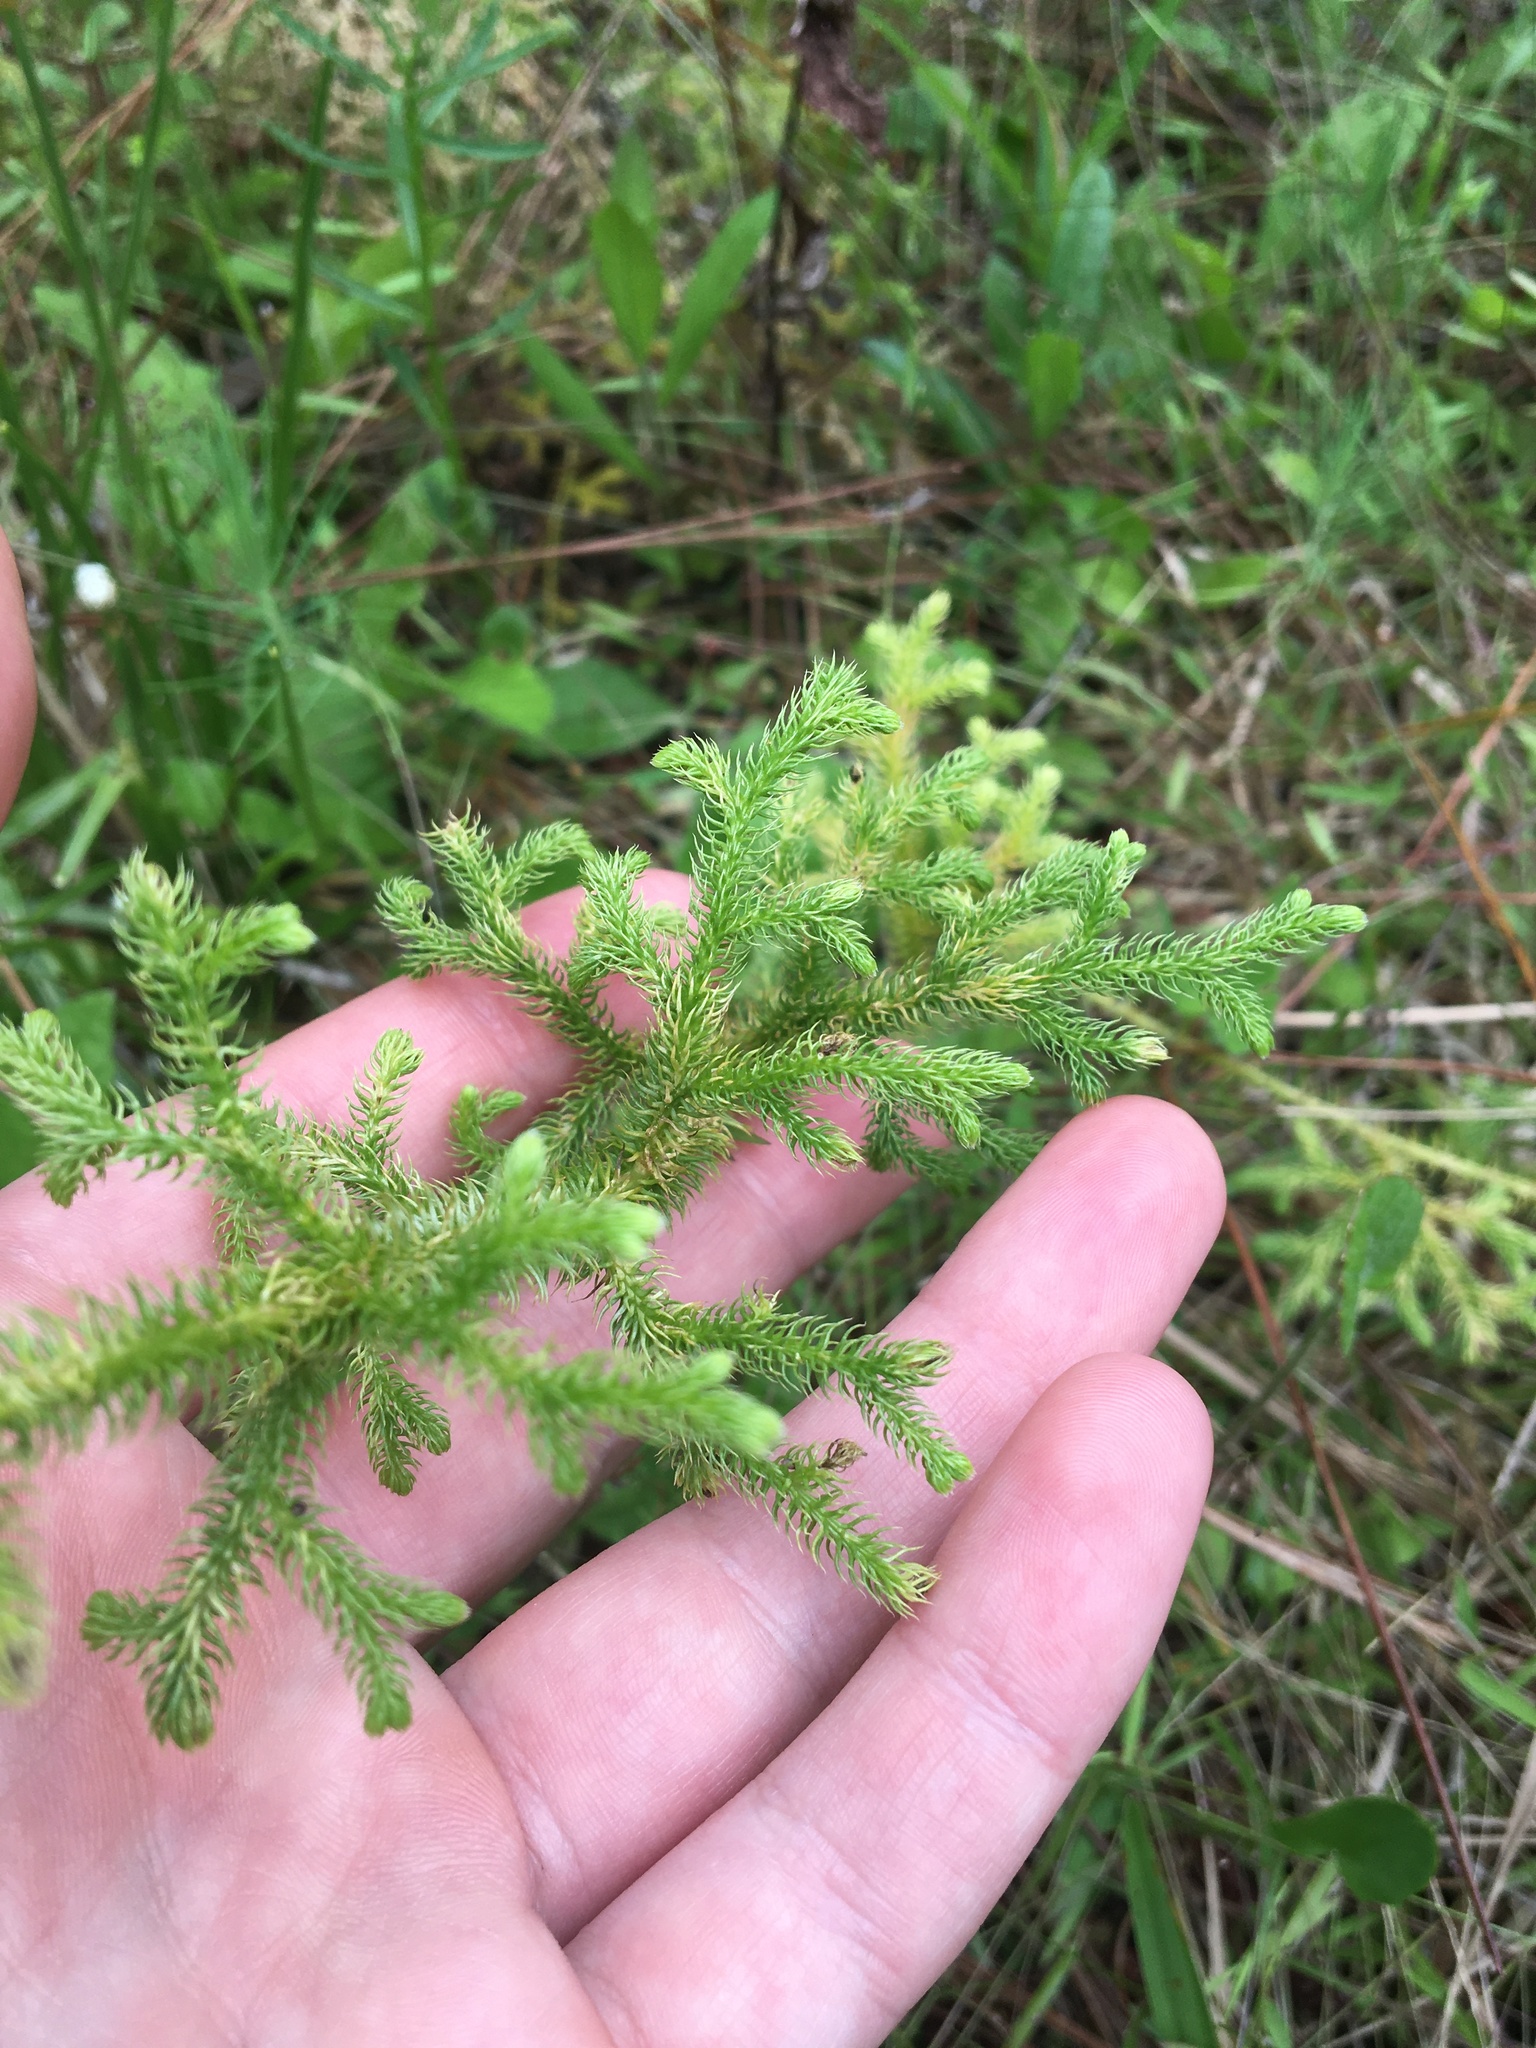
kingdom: Plantae
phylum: Tracheophyta
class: Lycopodiopsida
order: Lycopodiales
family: Lycopodiaceae
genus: Palhinhaea
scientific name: Palhinhaea cernua
